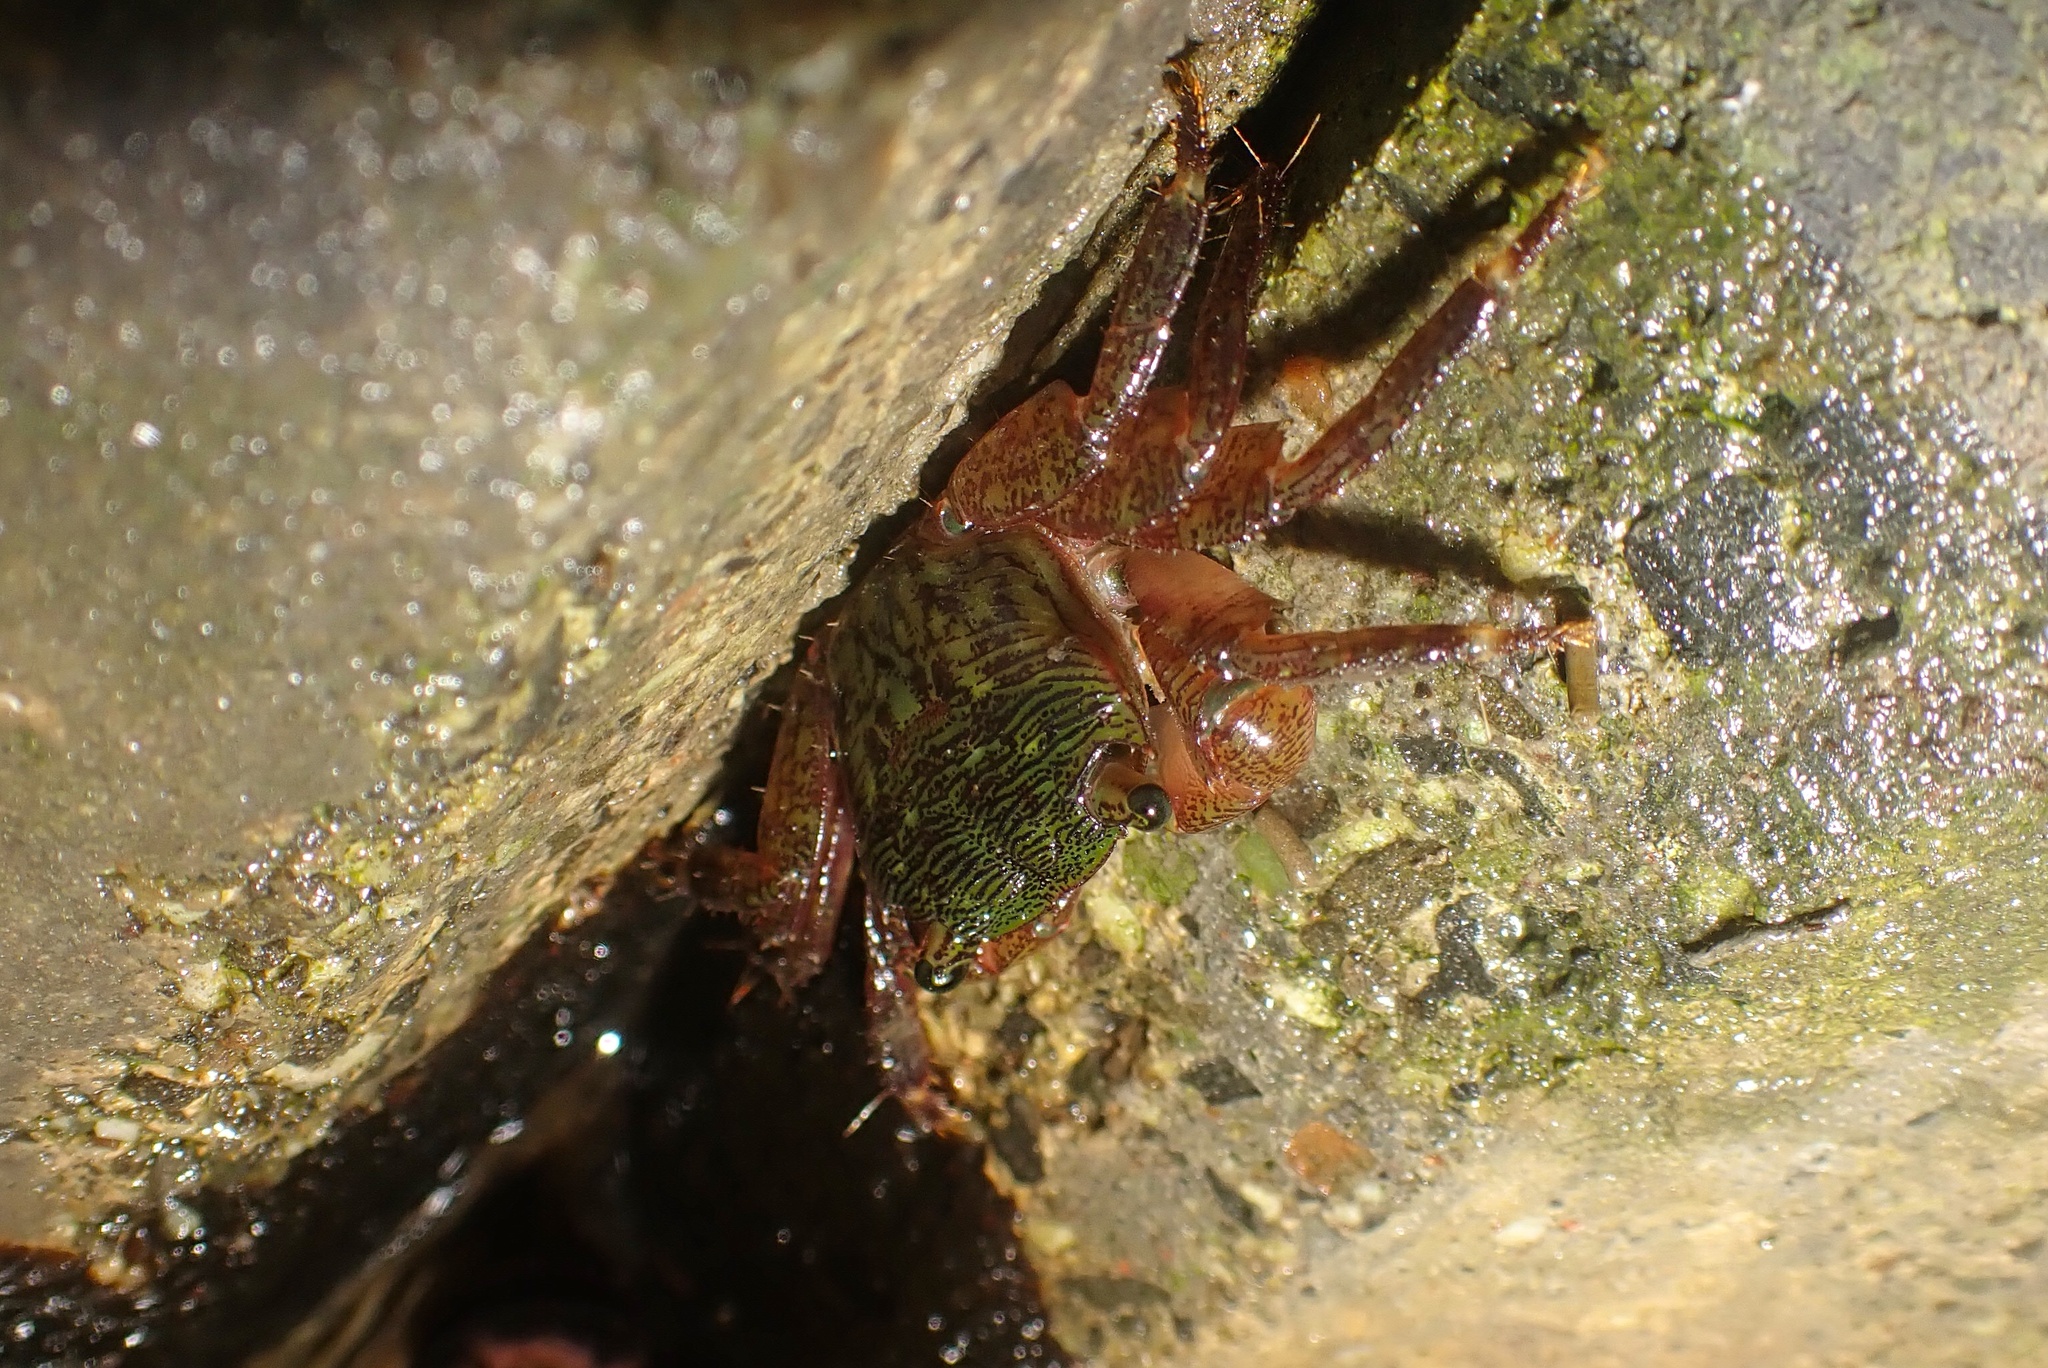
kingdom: Animalia
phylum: Arthropoda
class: Malacostraca
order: Decapoda
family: Grapsidae
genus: Pachygrapsus
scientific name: Pachygrapsus crassipes
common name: Striped shore crab
